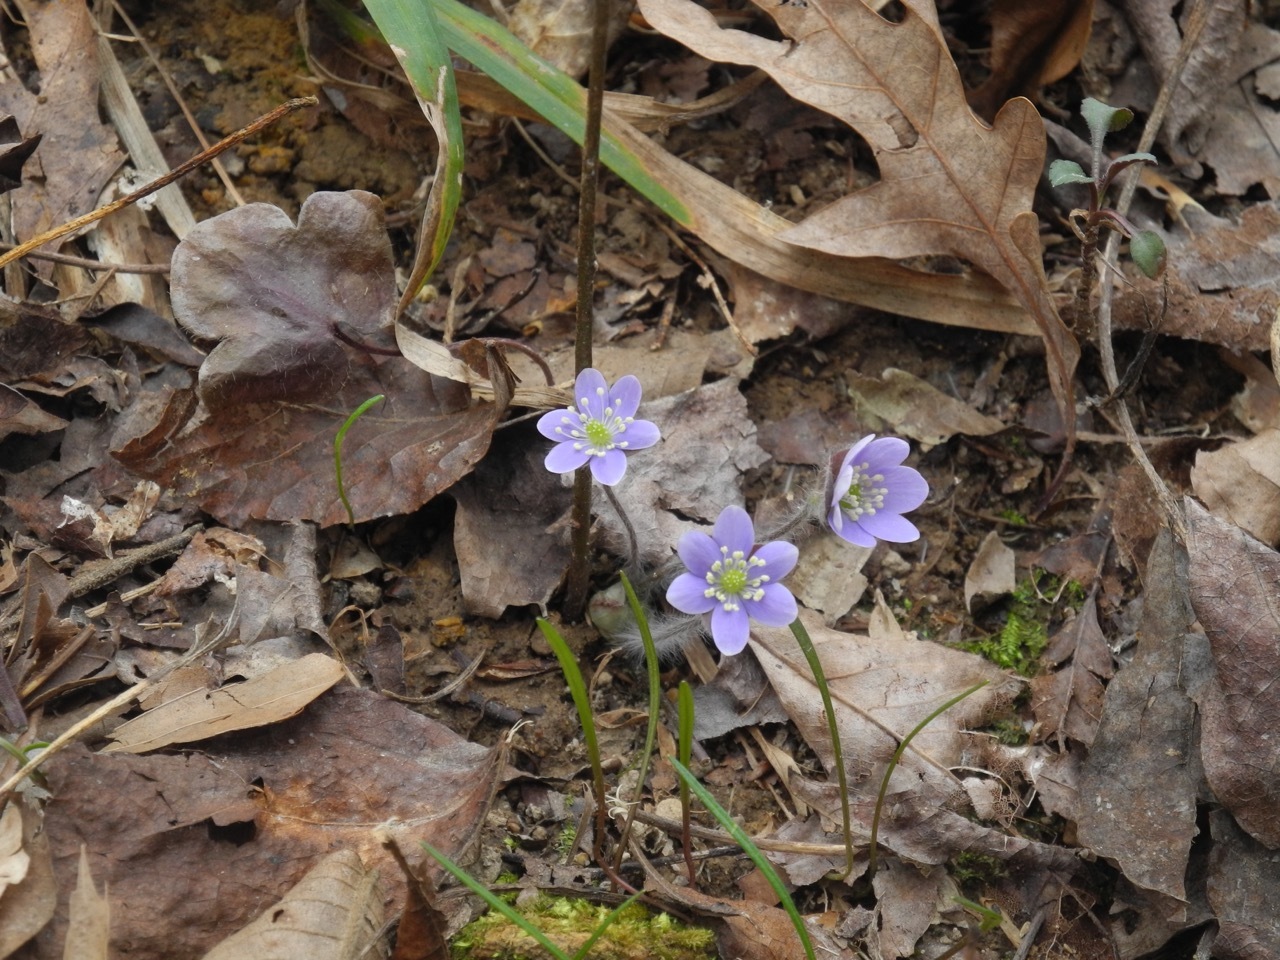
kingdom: Plantae
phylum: Tracheophyta
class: Magnoliopsida
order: Ranunculales
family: Ranunculaceae
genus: Hepatica
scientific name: Hepatica americana
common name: American hepatica
